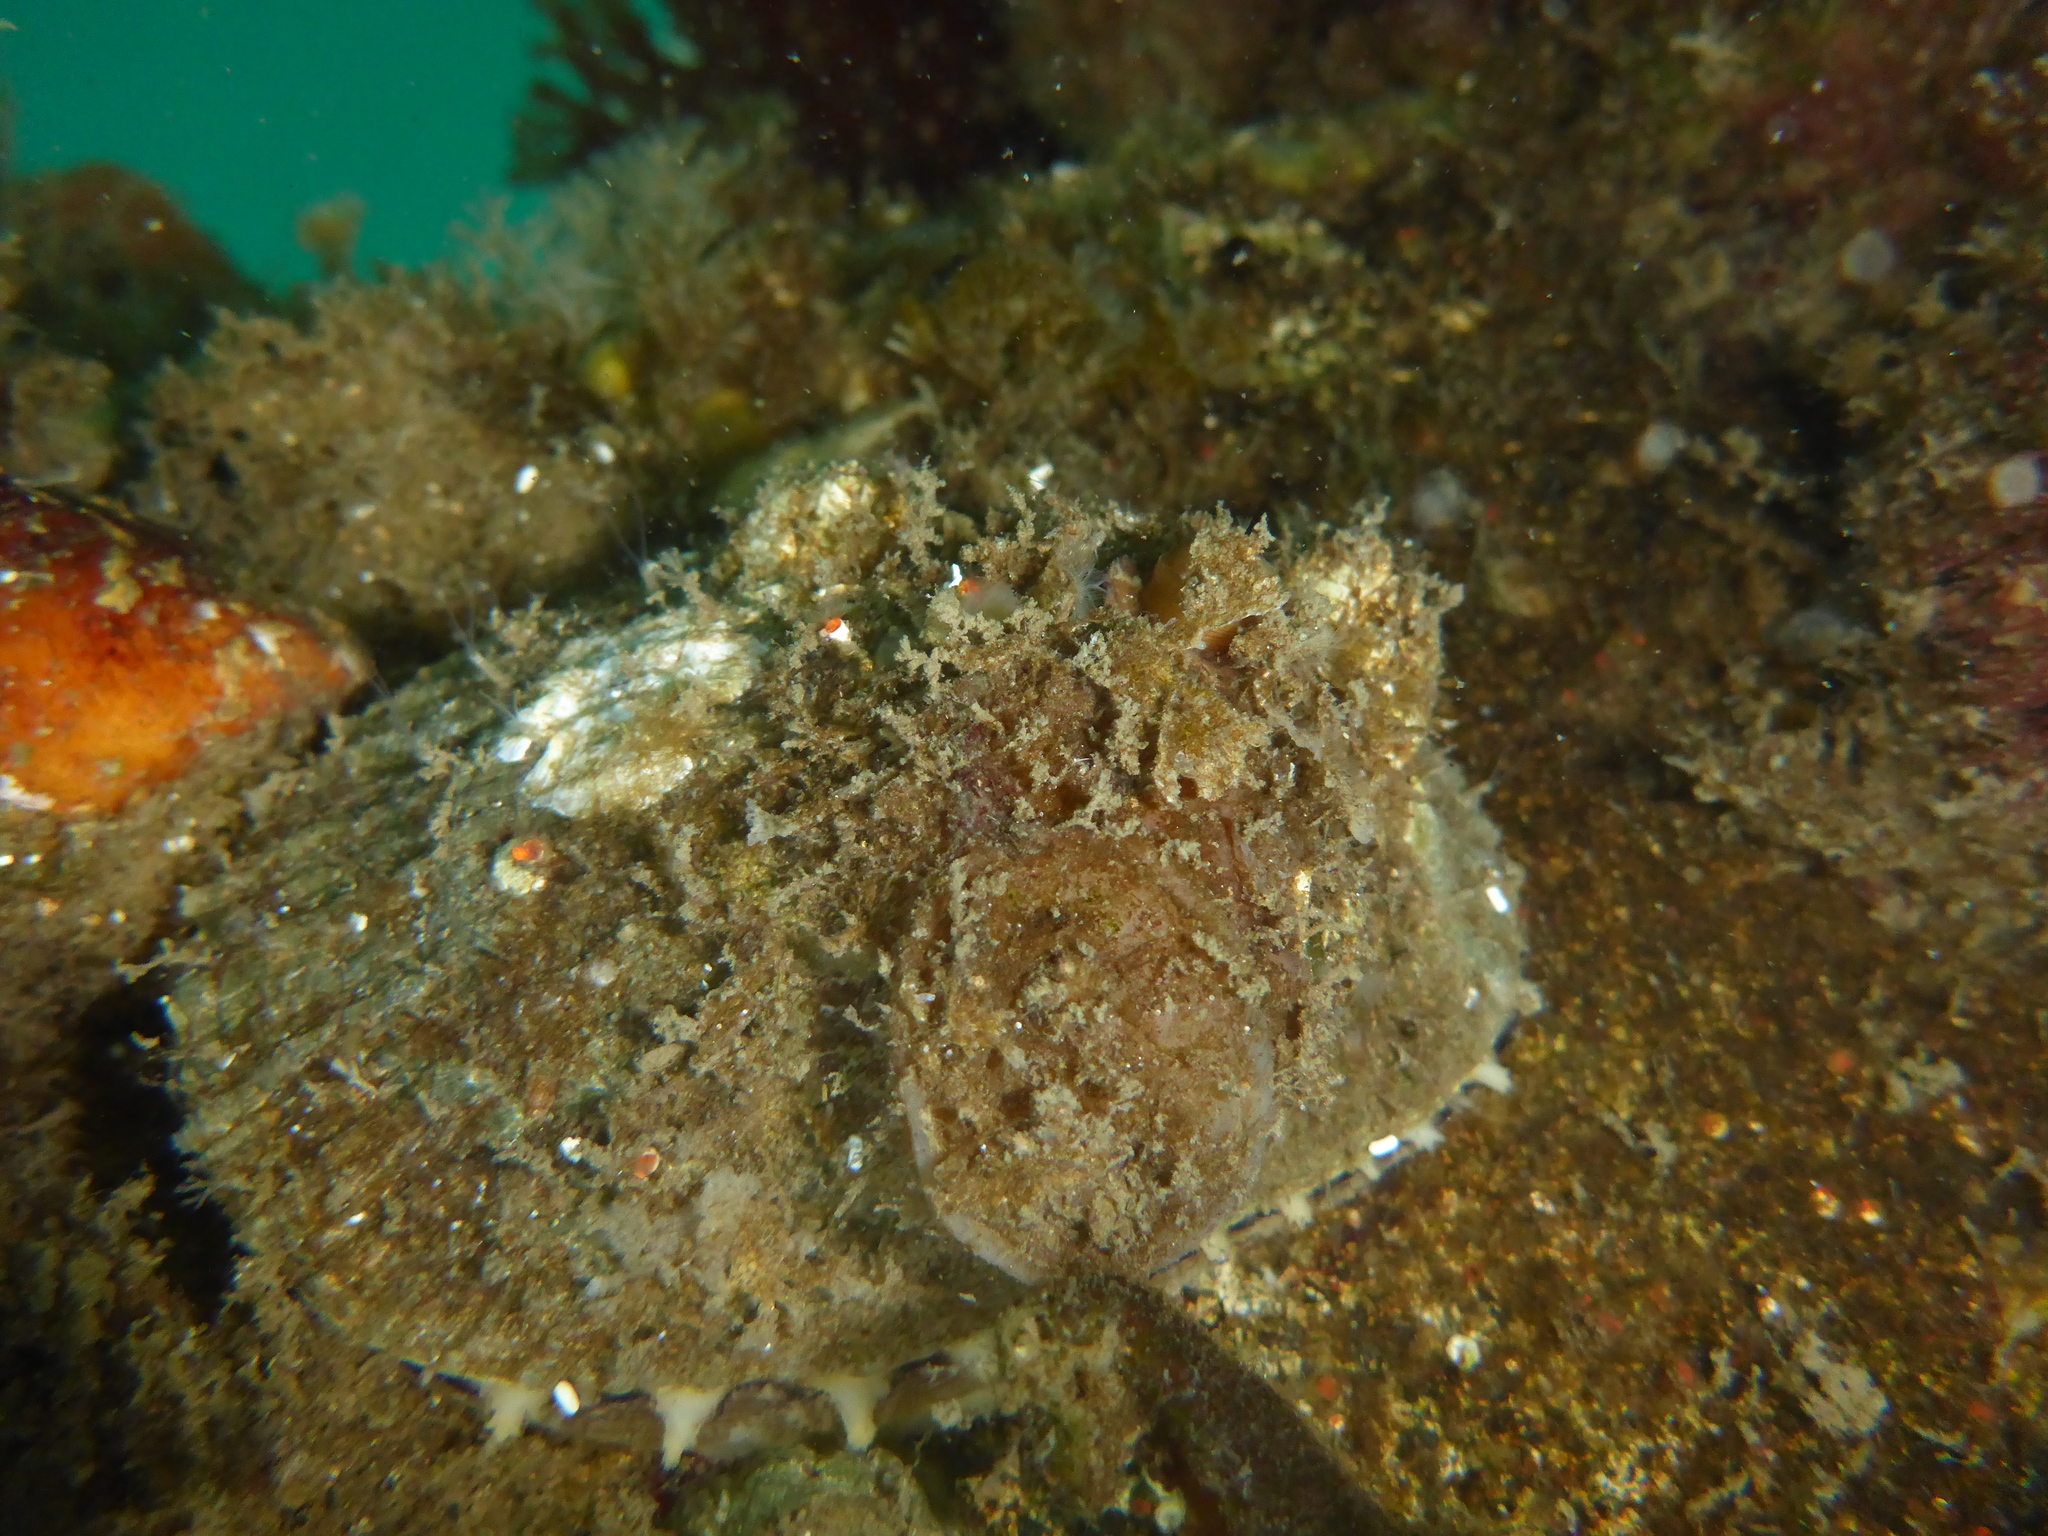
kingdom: Animalia
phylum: Mollusca
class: Gastropoda
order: Lepetellida
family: Fissurellidae
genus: Diodora
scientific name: Diodora aspera
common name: Rough keyhole limpet
